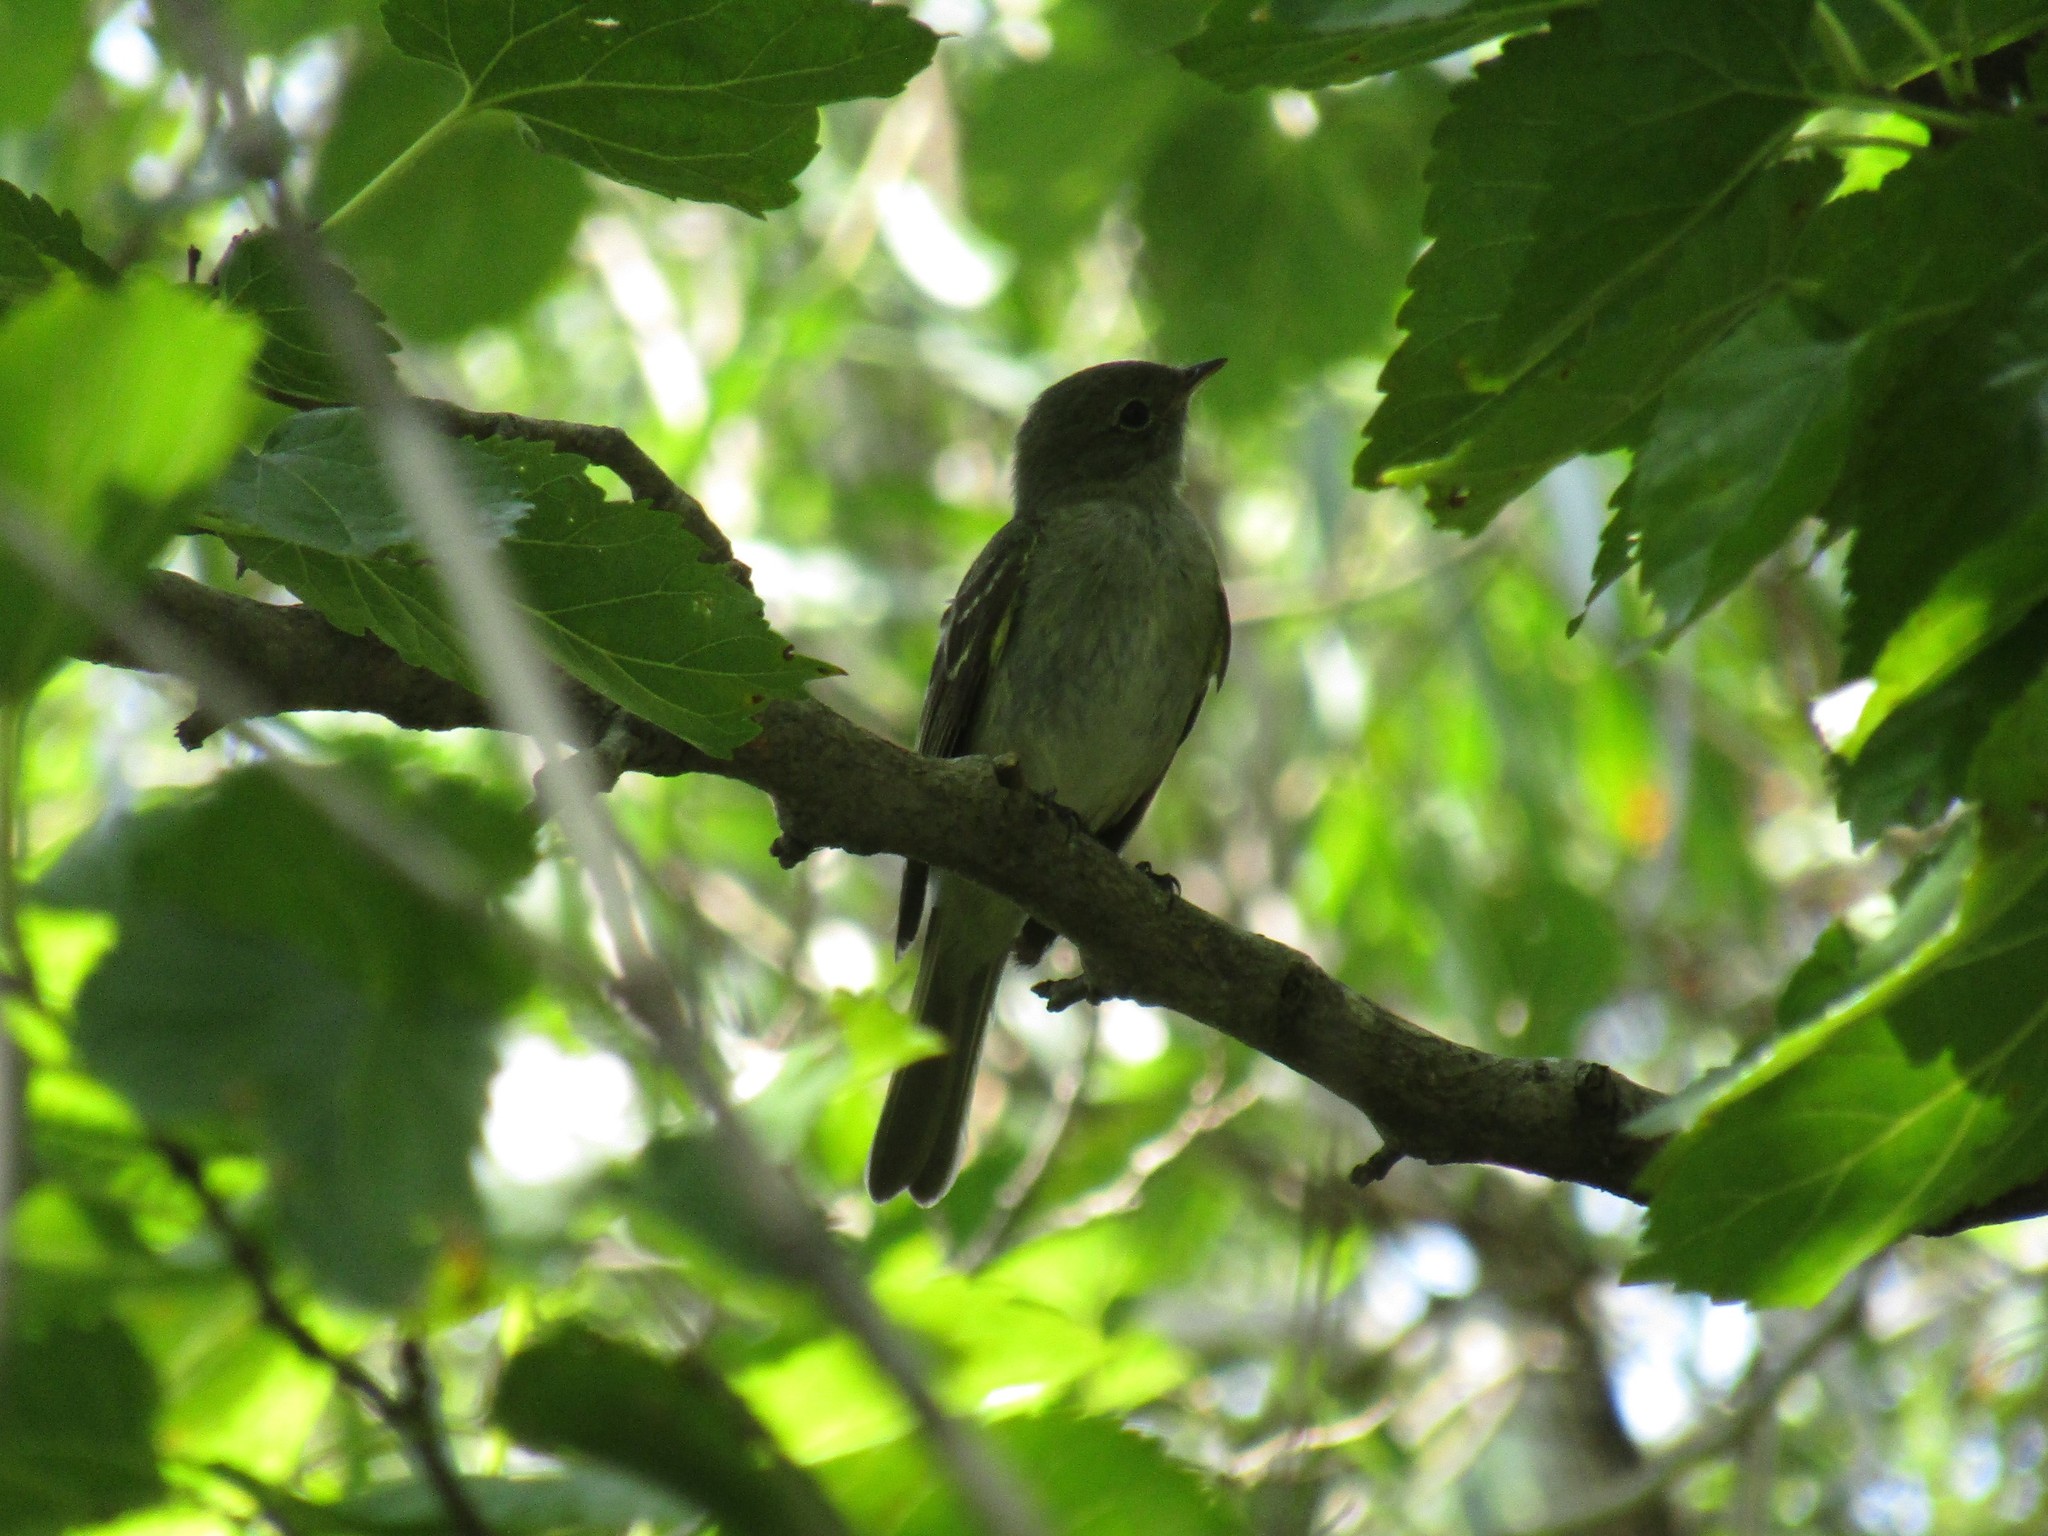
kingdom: Animalia
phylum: Chordata
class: Aves
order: Passeriformes
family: Tyrannidae
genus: Elaenia
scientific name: Elaenia parvirostris
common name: Small-billed elaenia
